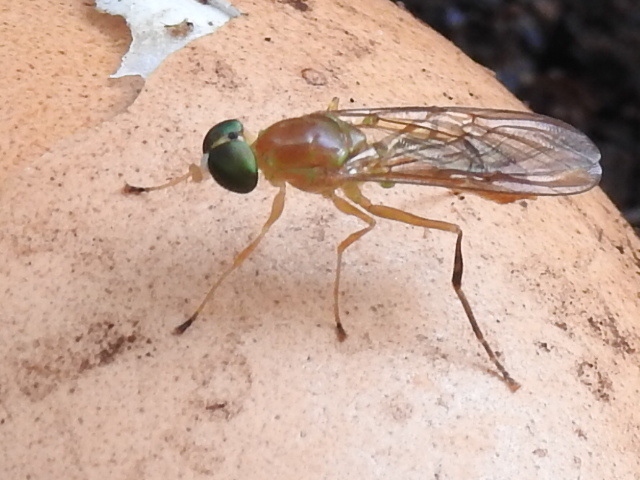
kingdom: Animalia
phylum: Arthropoda
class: Insecta
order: Diptera
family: Stratiomyidae
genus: Ptecticus
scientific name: Ptecticus trivittatus
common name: Compost fly
